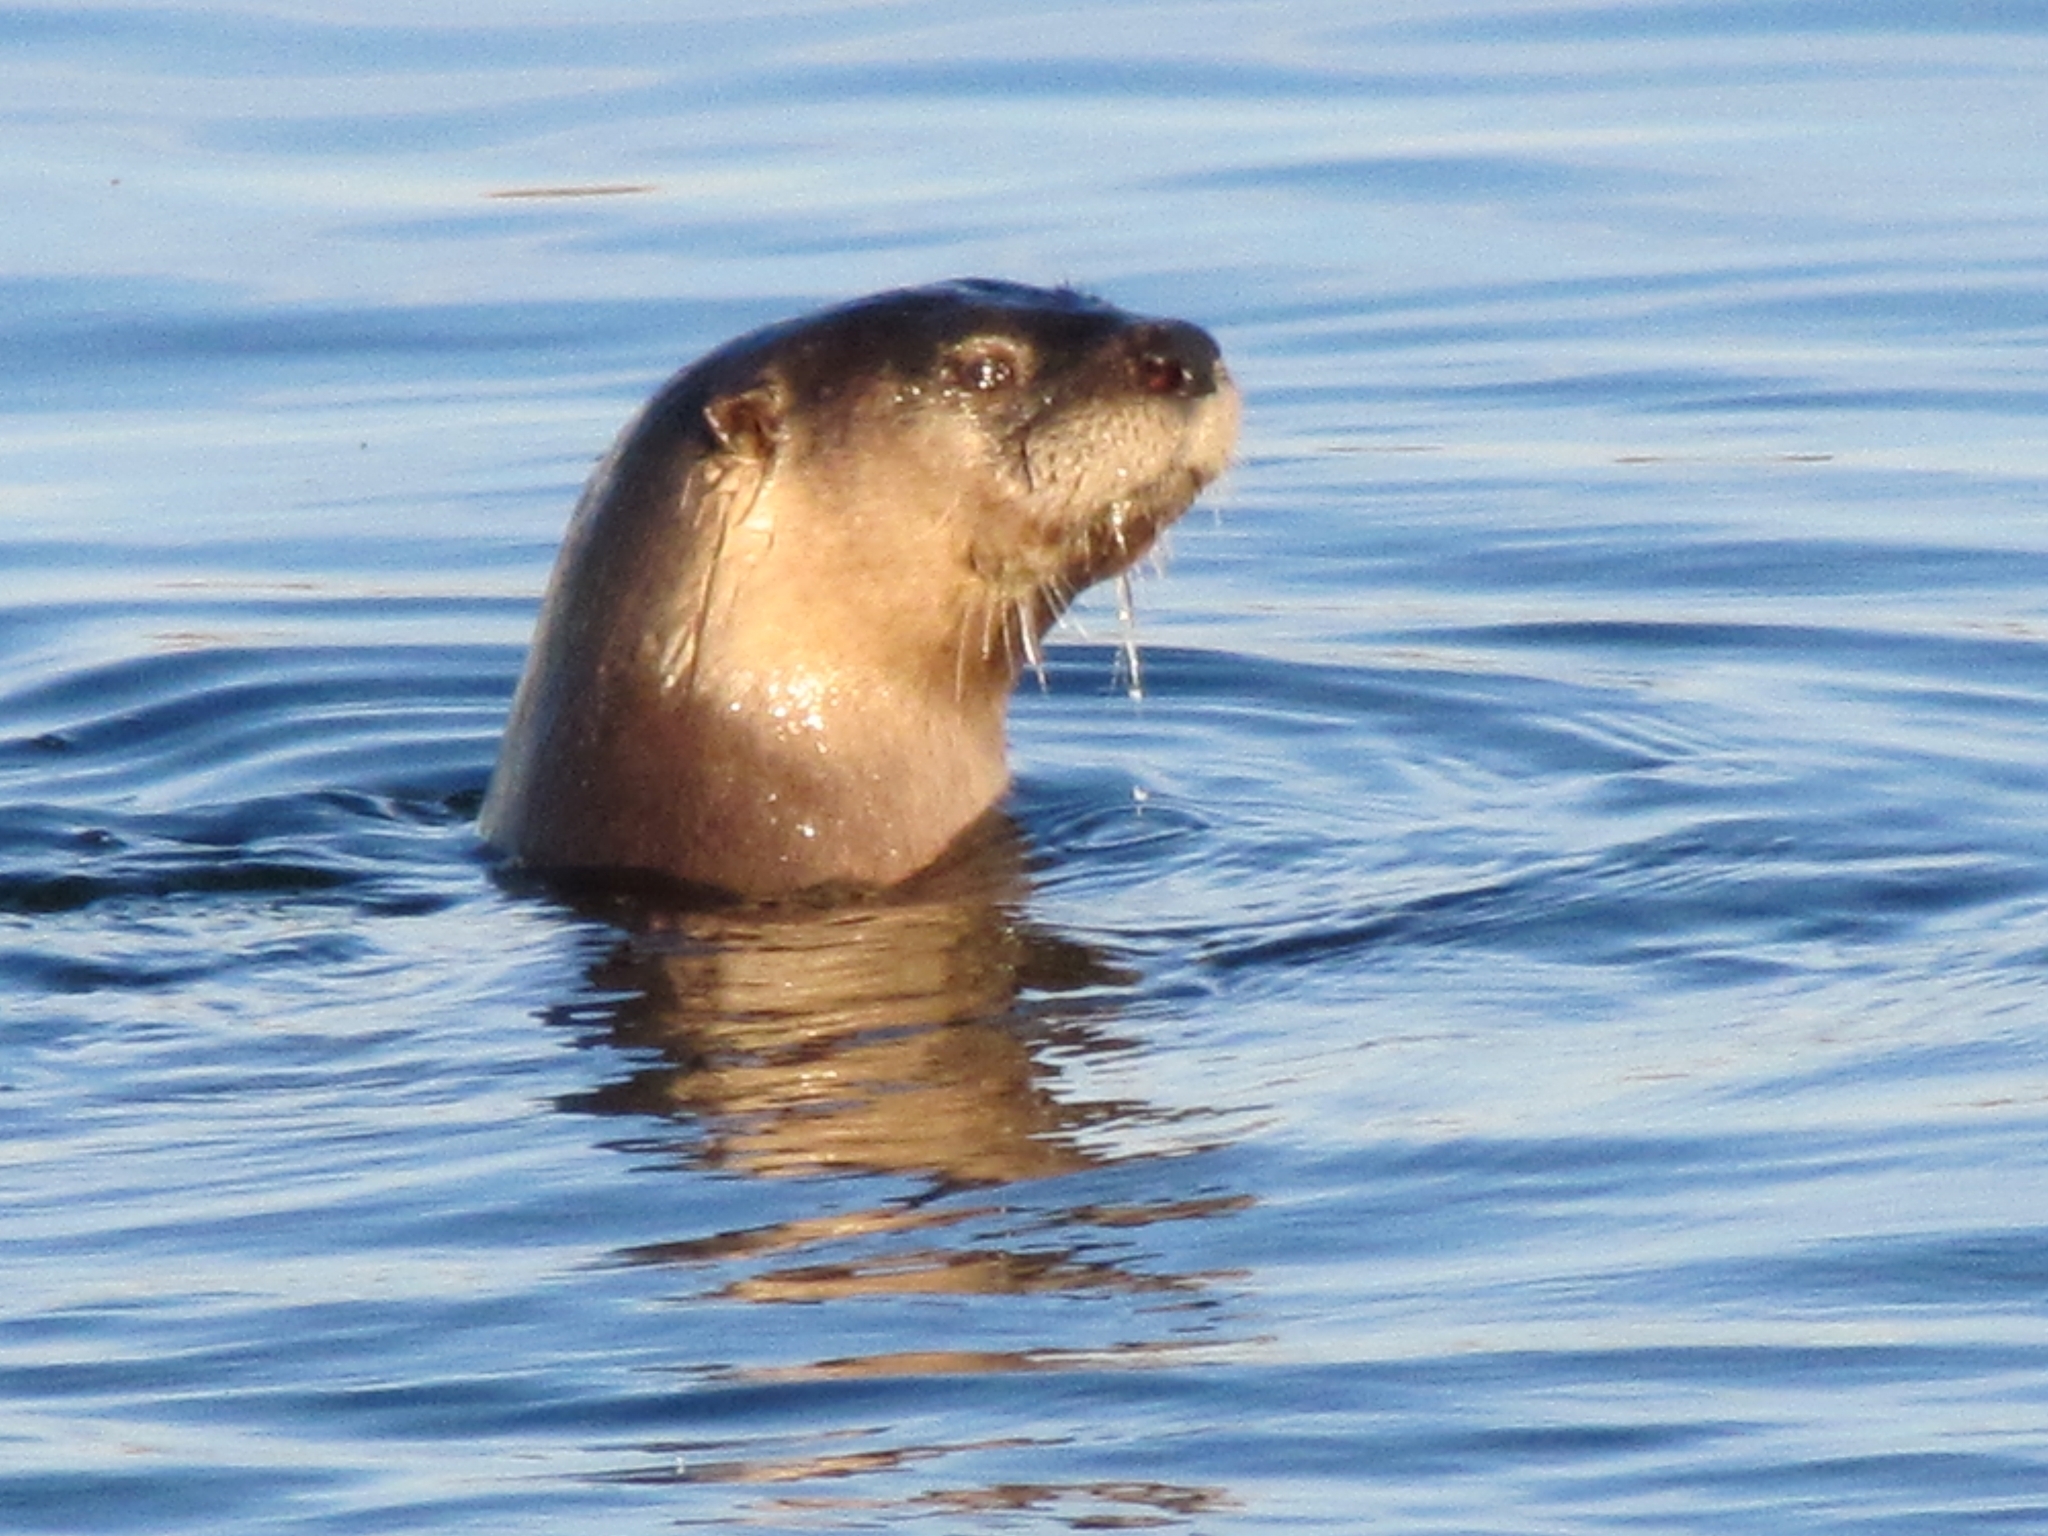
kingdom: Animalia
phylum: Chordata
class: Mammalia
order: Carnivora
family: Mustelidae
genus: Lontra
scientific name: Lontra canadensis
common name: North american river otter
